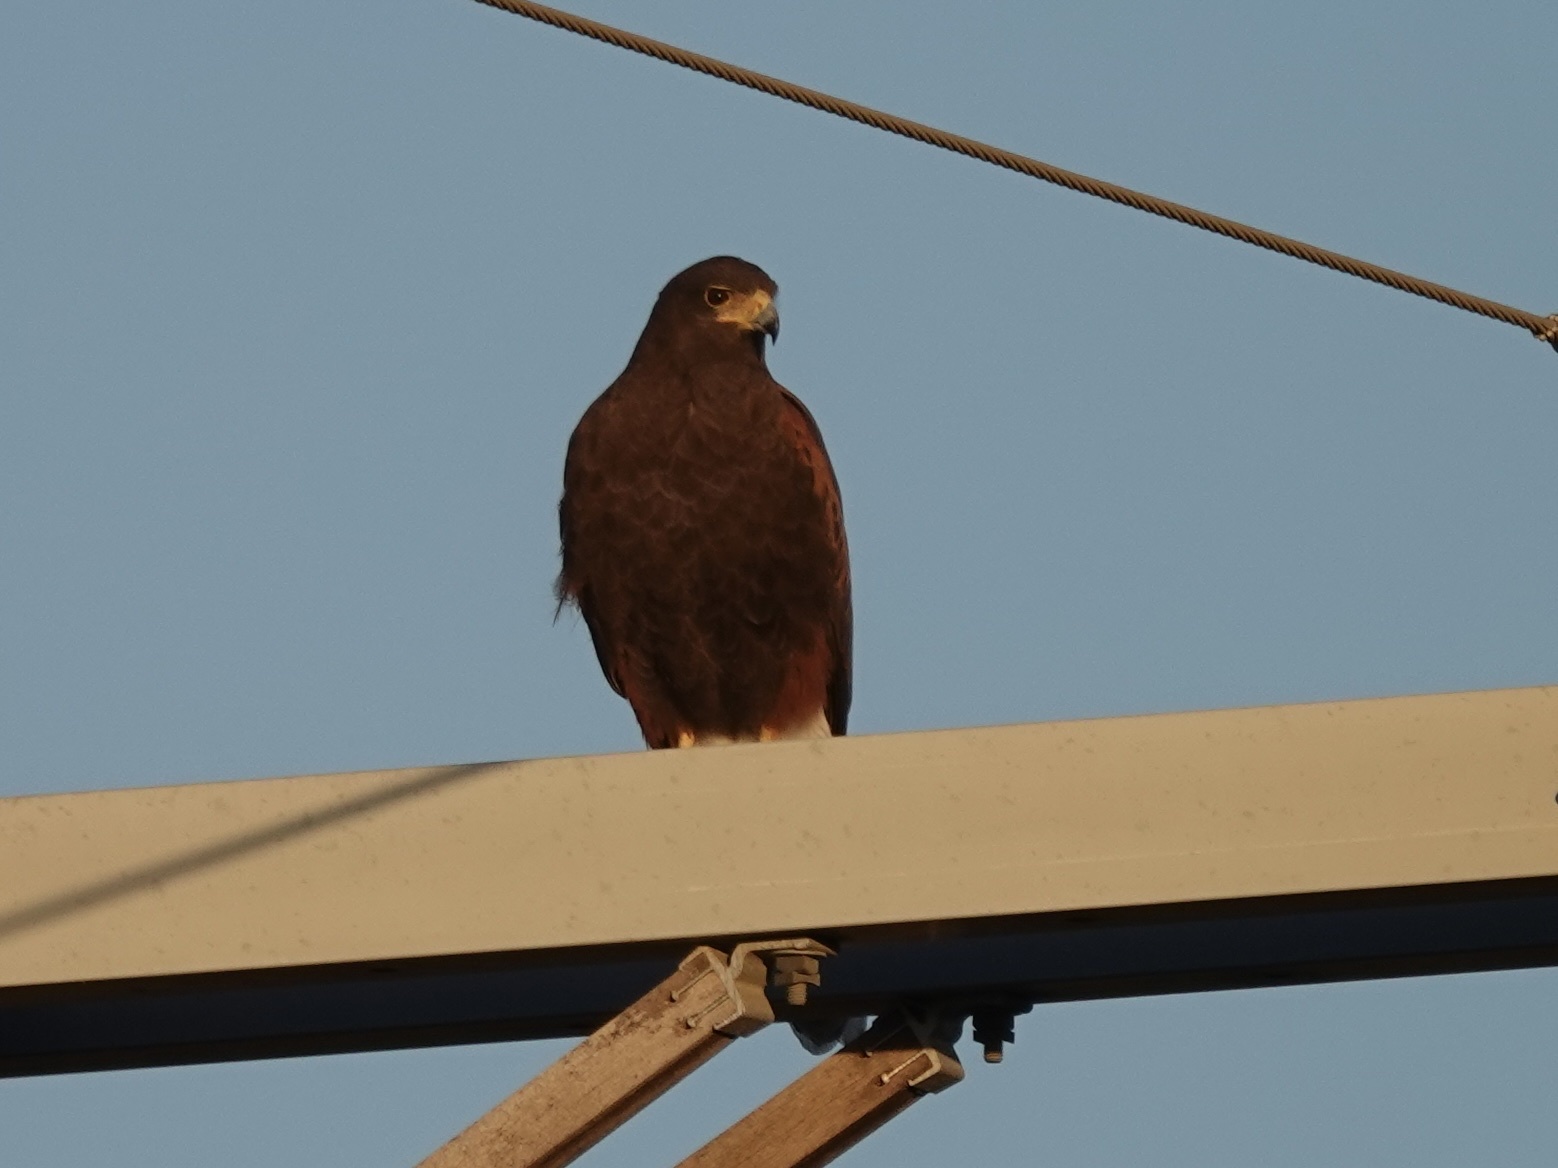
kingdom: Animalia
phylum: Chordata
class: Aves
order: Accipitriformes
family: Accipitridae
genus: Parabuteo
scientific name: Parabuteo unicinctus
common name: Harris's hawk
